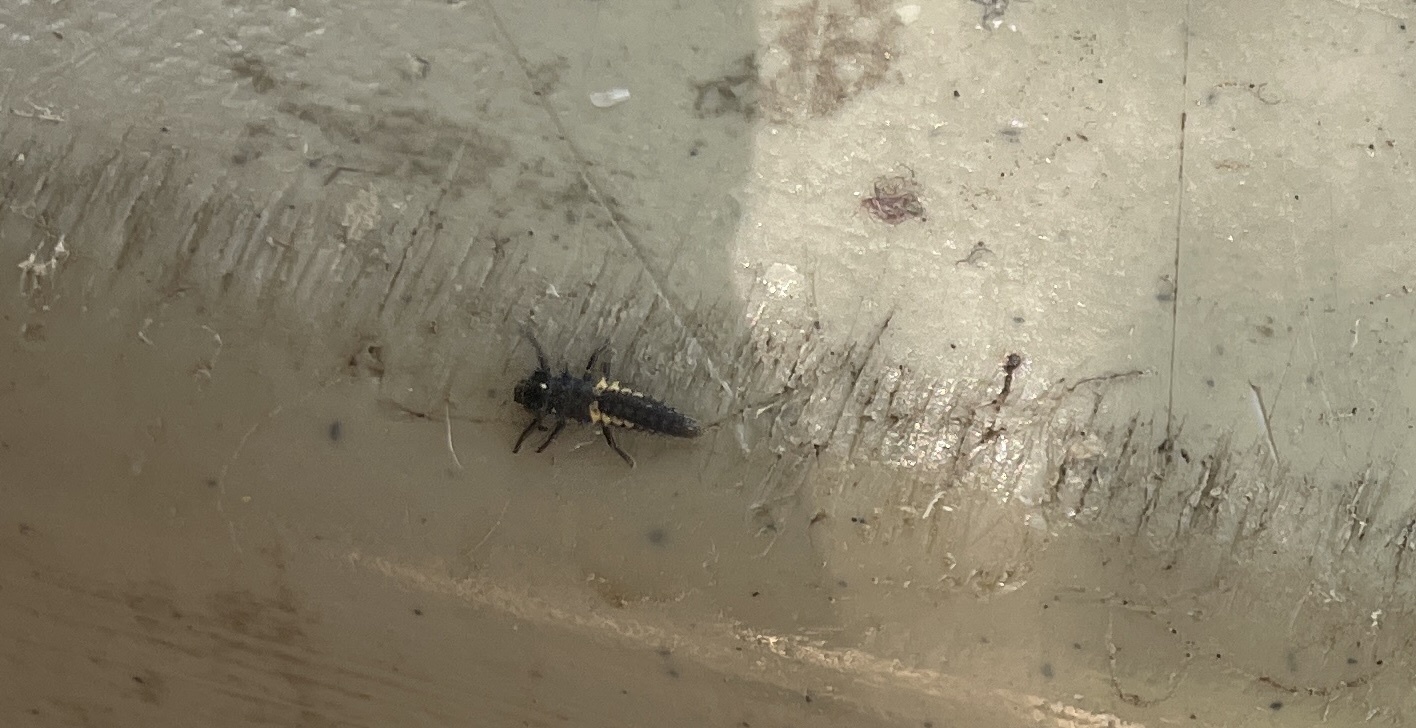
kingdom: Animalia
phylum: Arthropoda
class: Insecta
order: Coleoptera
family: Coccinellidae
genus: Harmonia
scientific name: Harmonia axyridis
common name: Harlequin ladybird
